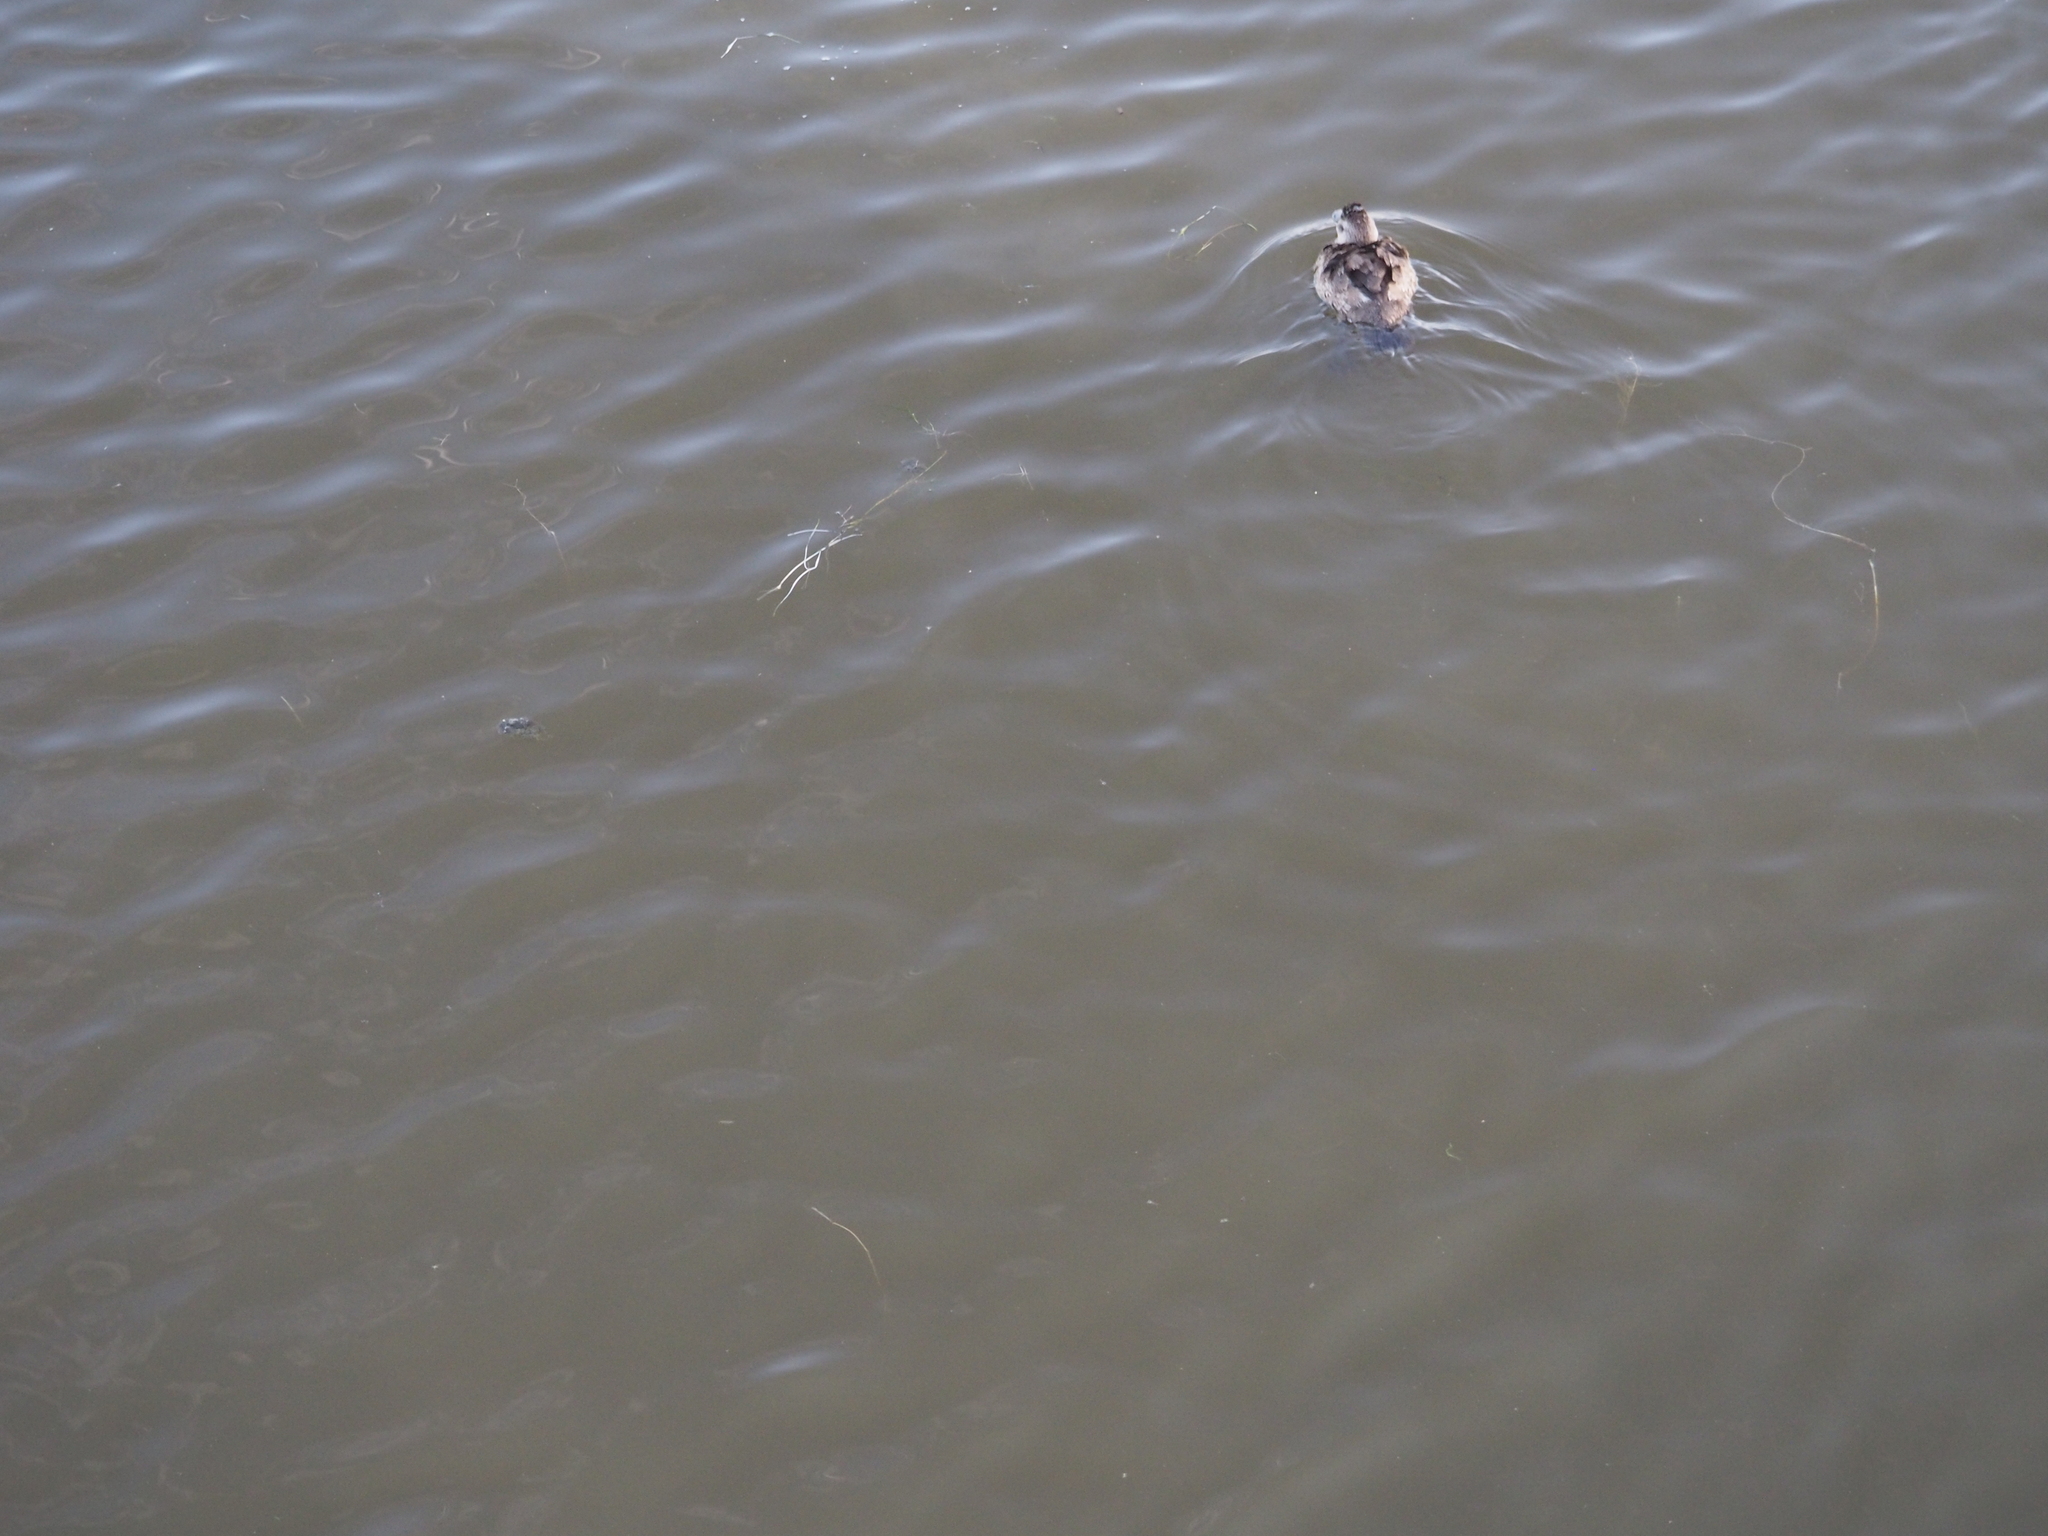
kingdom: Animalia
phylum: Chordata
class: Aves
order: Anseriformes
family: Anatidae
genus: Oxyura
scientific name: Oxyura jamaicensis
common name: Ruddy duck
